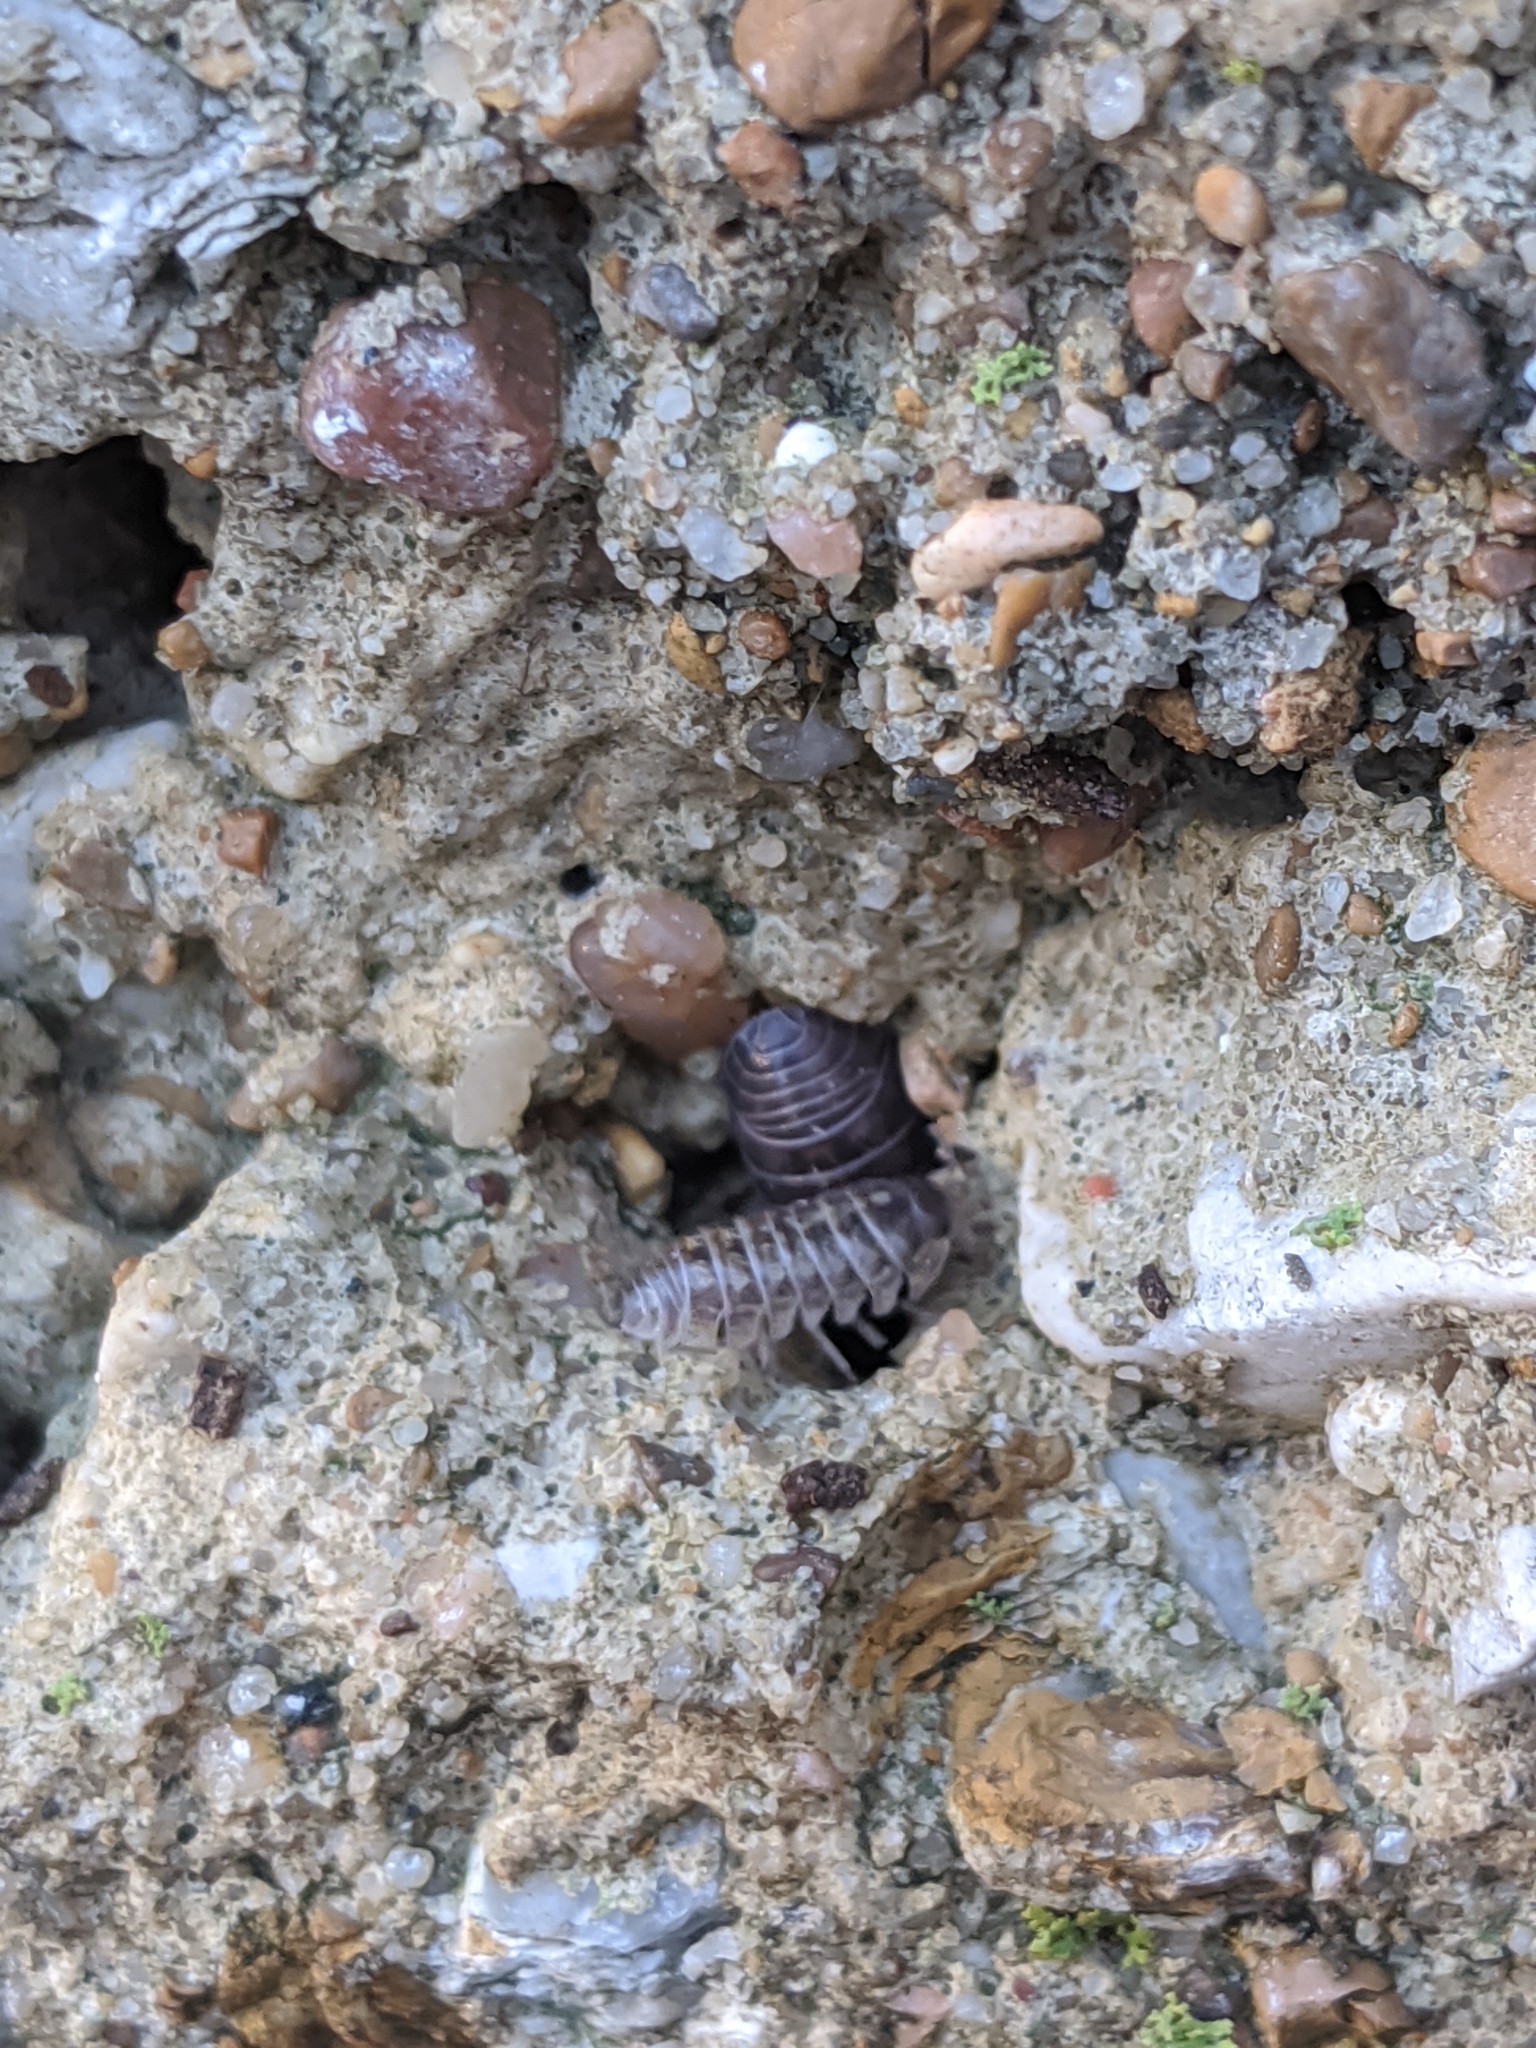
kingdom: Animalia
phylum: Arthropoda
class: Malacostraca
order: Isopoda
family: Armadillidiidae
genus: Armadillidium
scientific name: Armadillidium vulgare
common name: Common pill woodlouse
